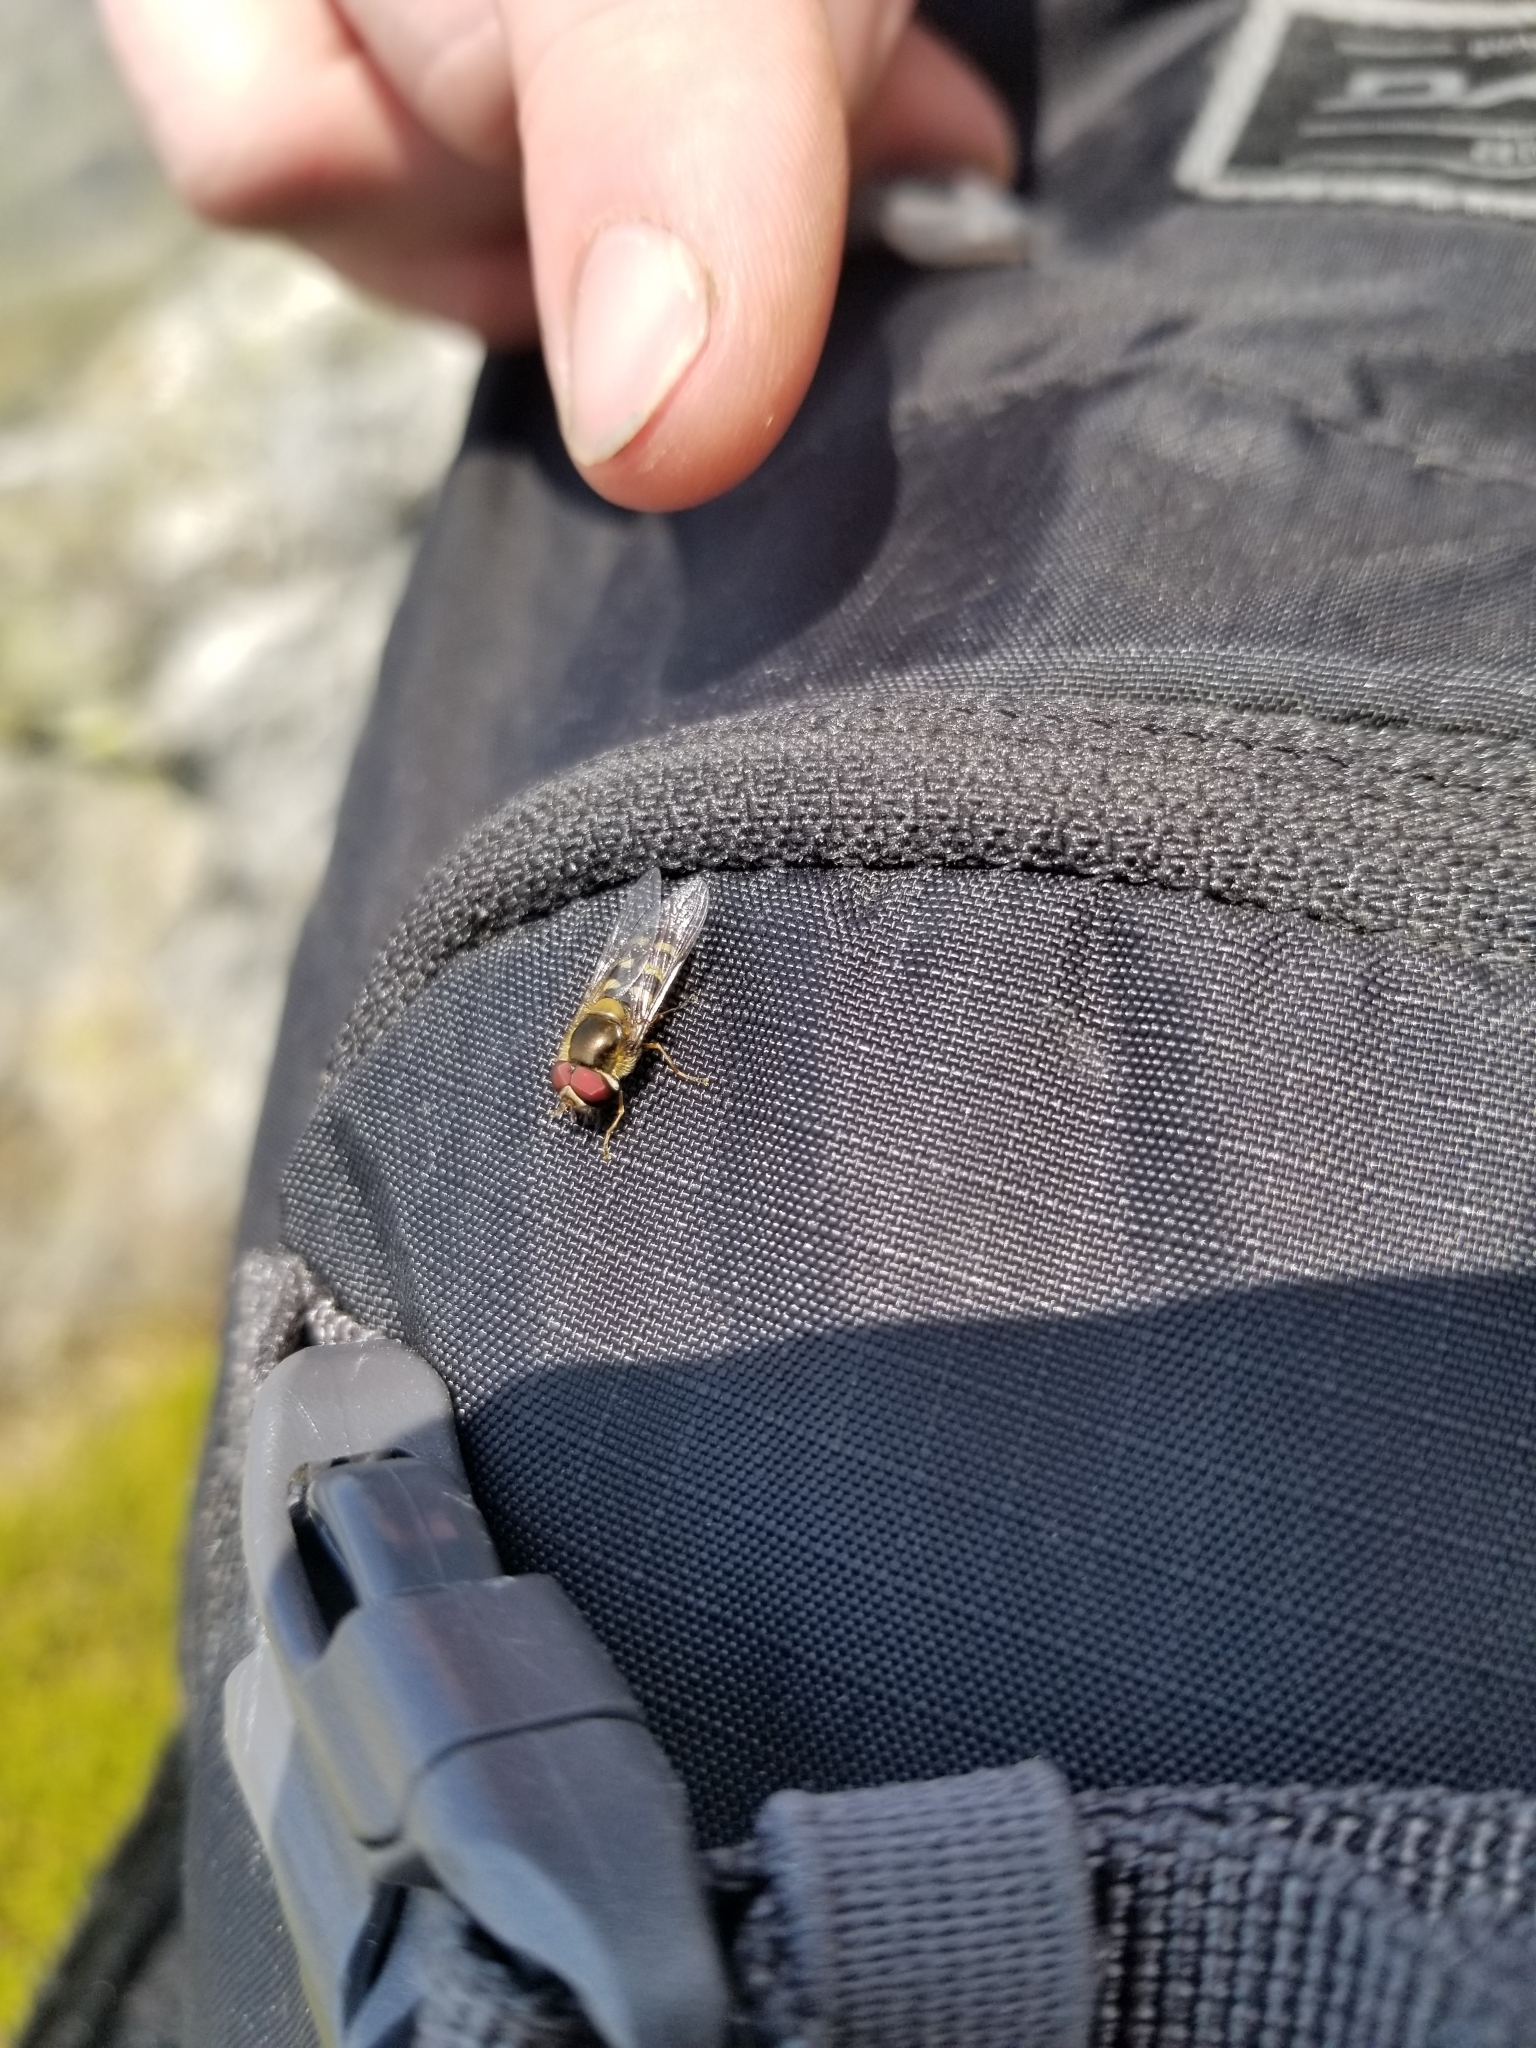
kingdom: Animalia
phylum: Arthropoda
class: Insecta
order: Diptera
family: Syrphidae
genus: Lapposyrphus
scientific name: Lapposyrphus lapponicus
